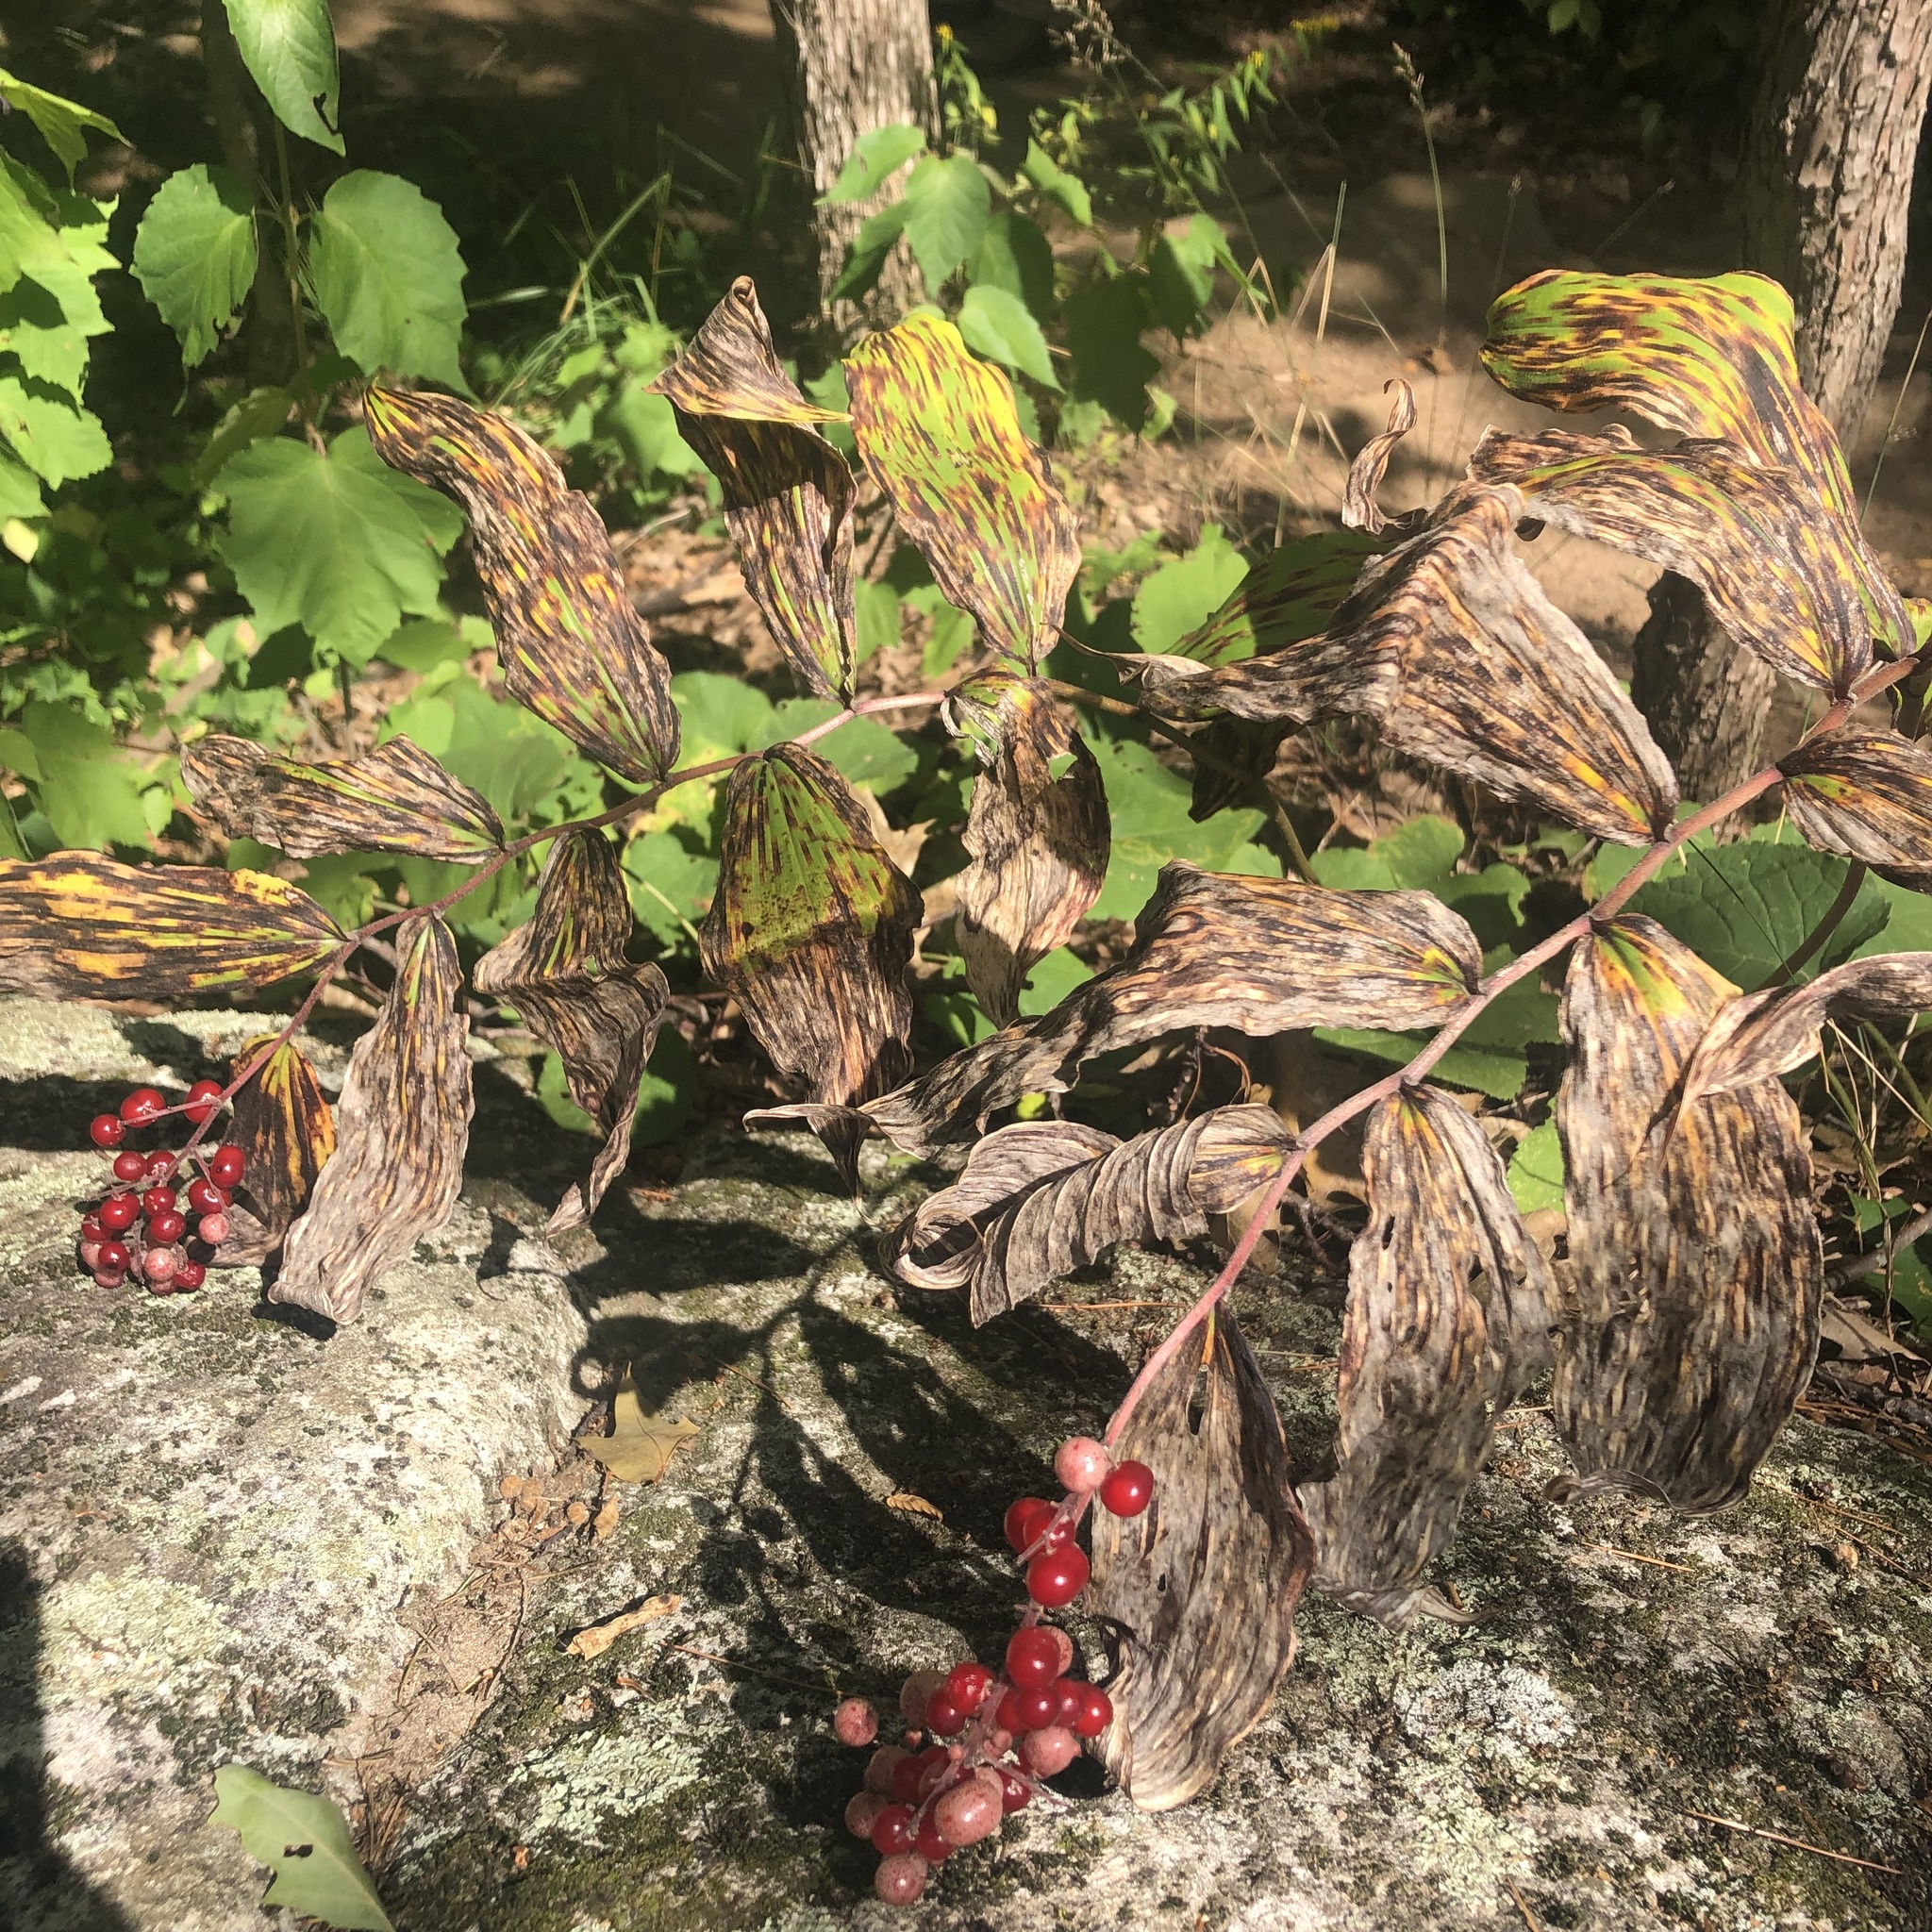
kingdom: Plantae
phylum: Tracheophyta
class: Liliopsida
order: Asparagales
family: Asparagaceae
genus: Maianthemum
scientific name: Maianthemum racemosum
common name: False spikenard
